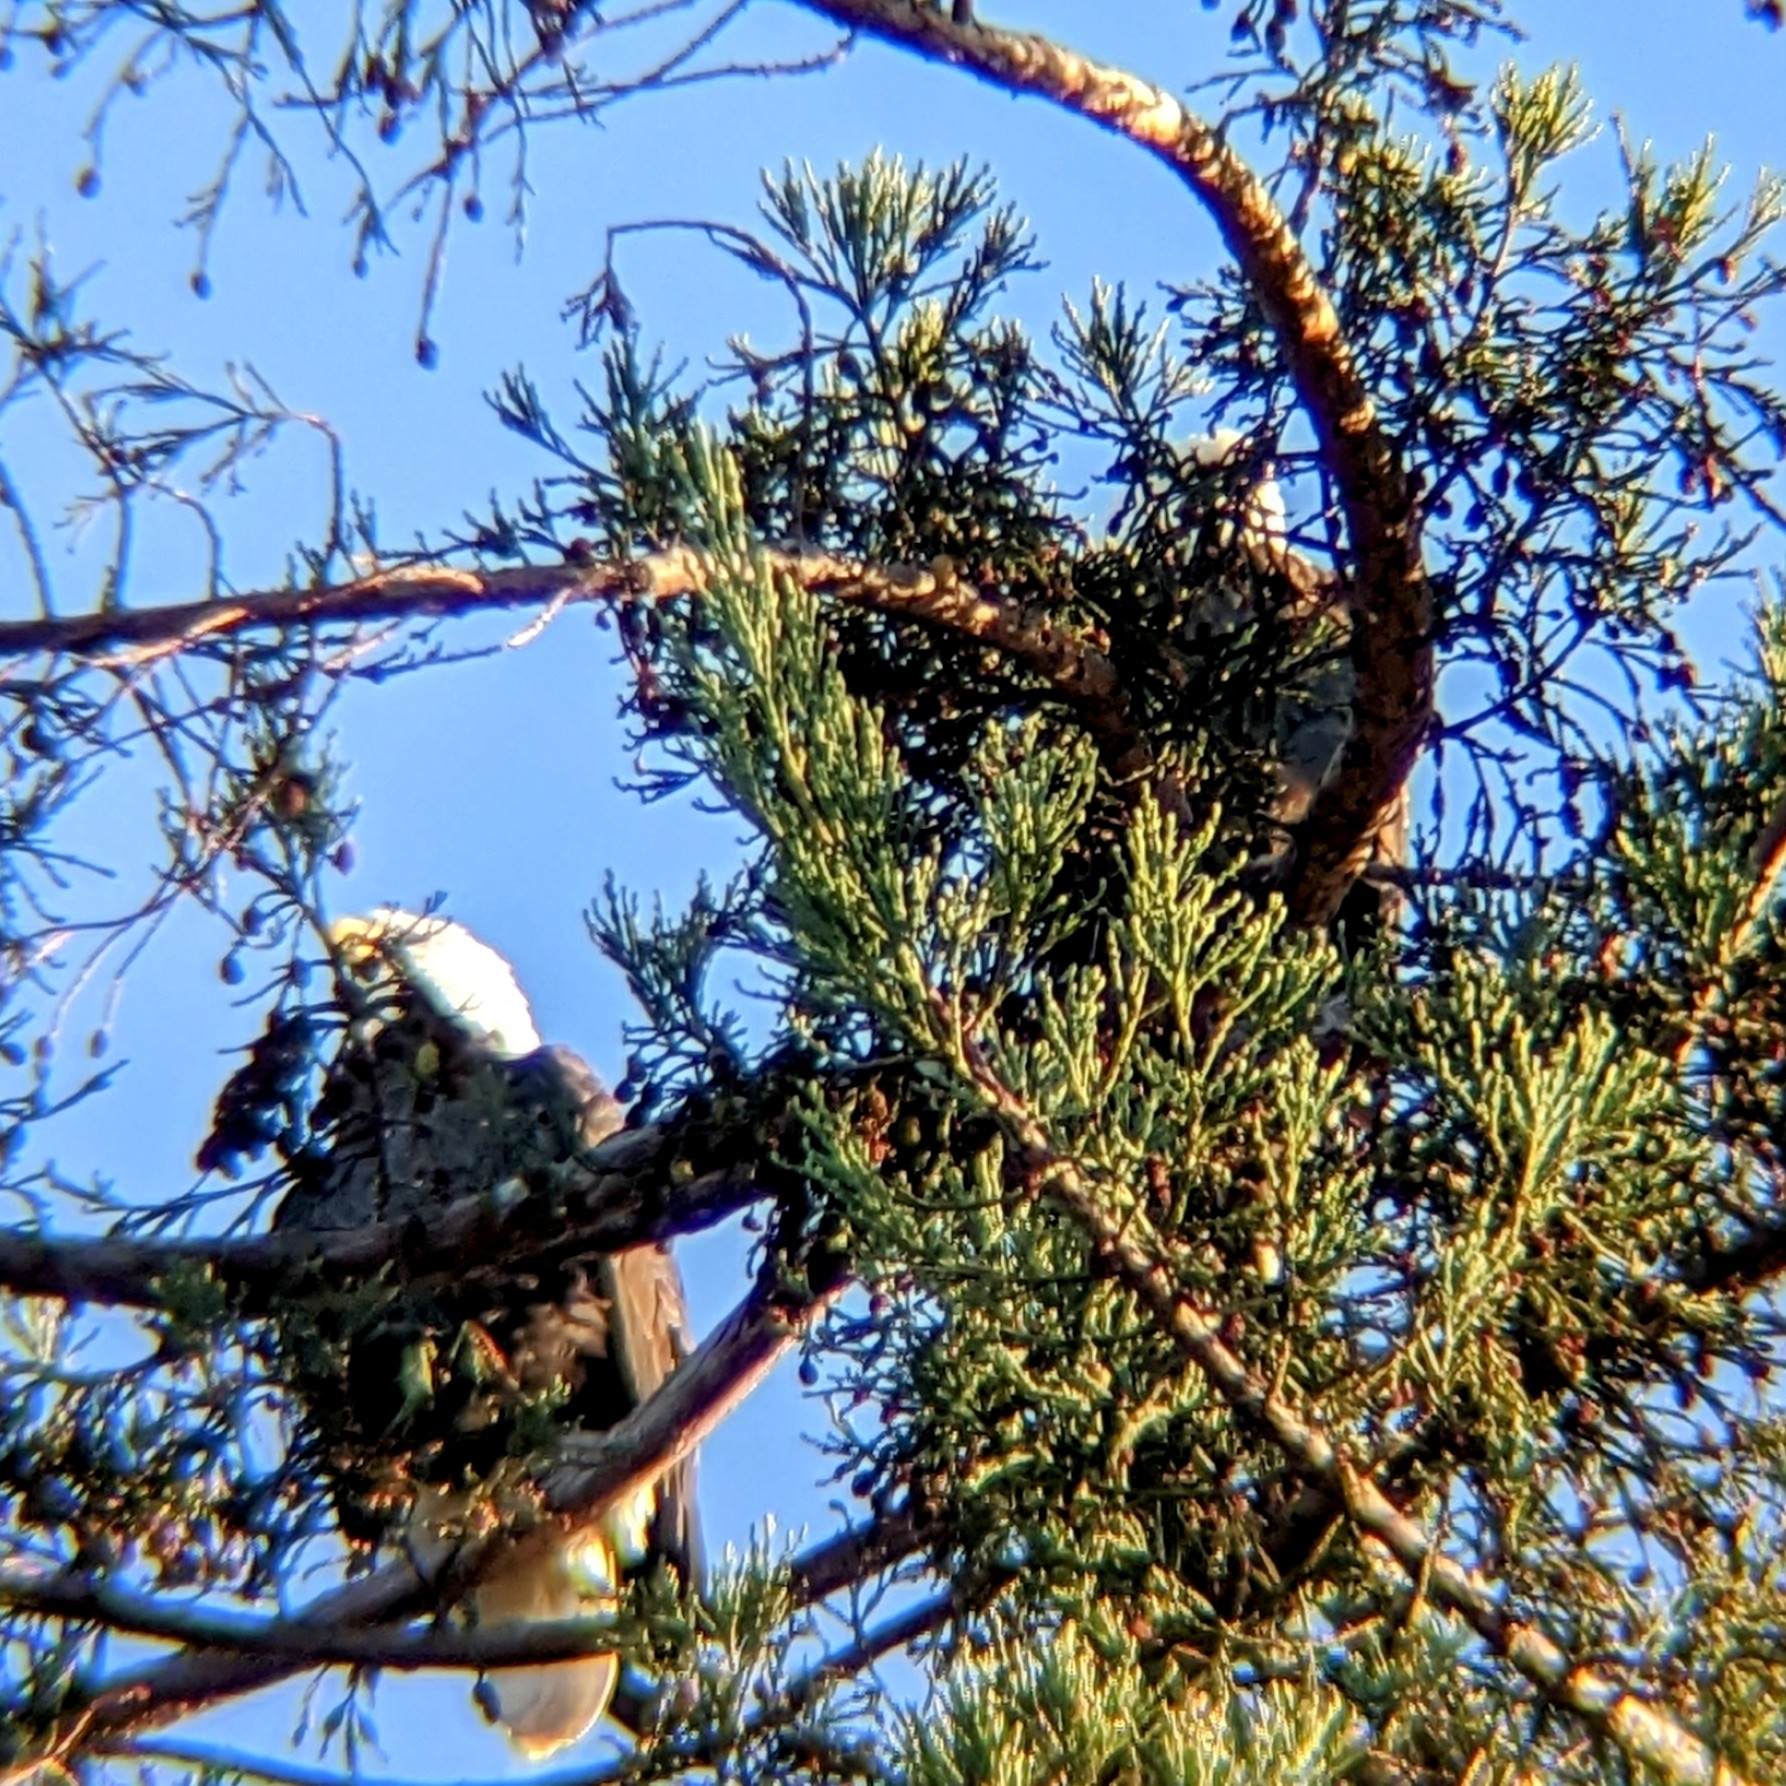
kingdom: Animalia
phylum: Chordata
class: Aves
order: Accipitriformes
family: Accipitridae
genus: Haliaeetus
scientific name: Haliaeetus leucocephalus
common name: Bald eagle
